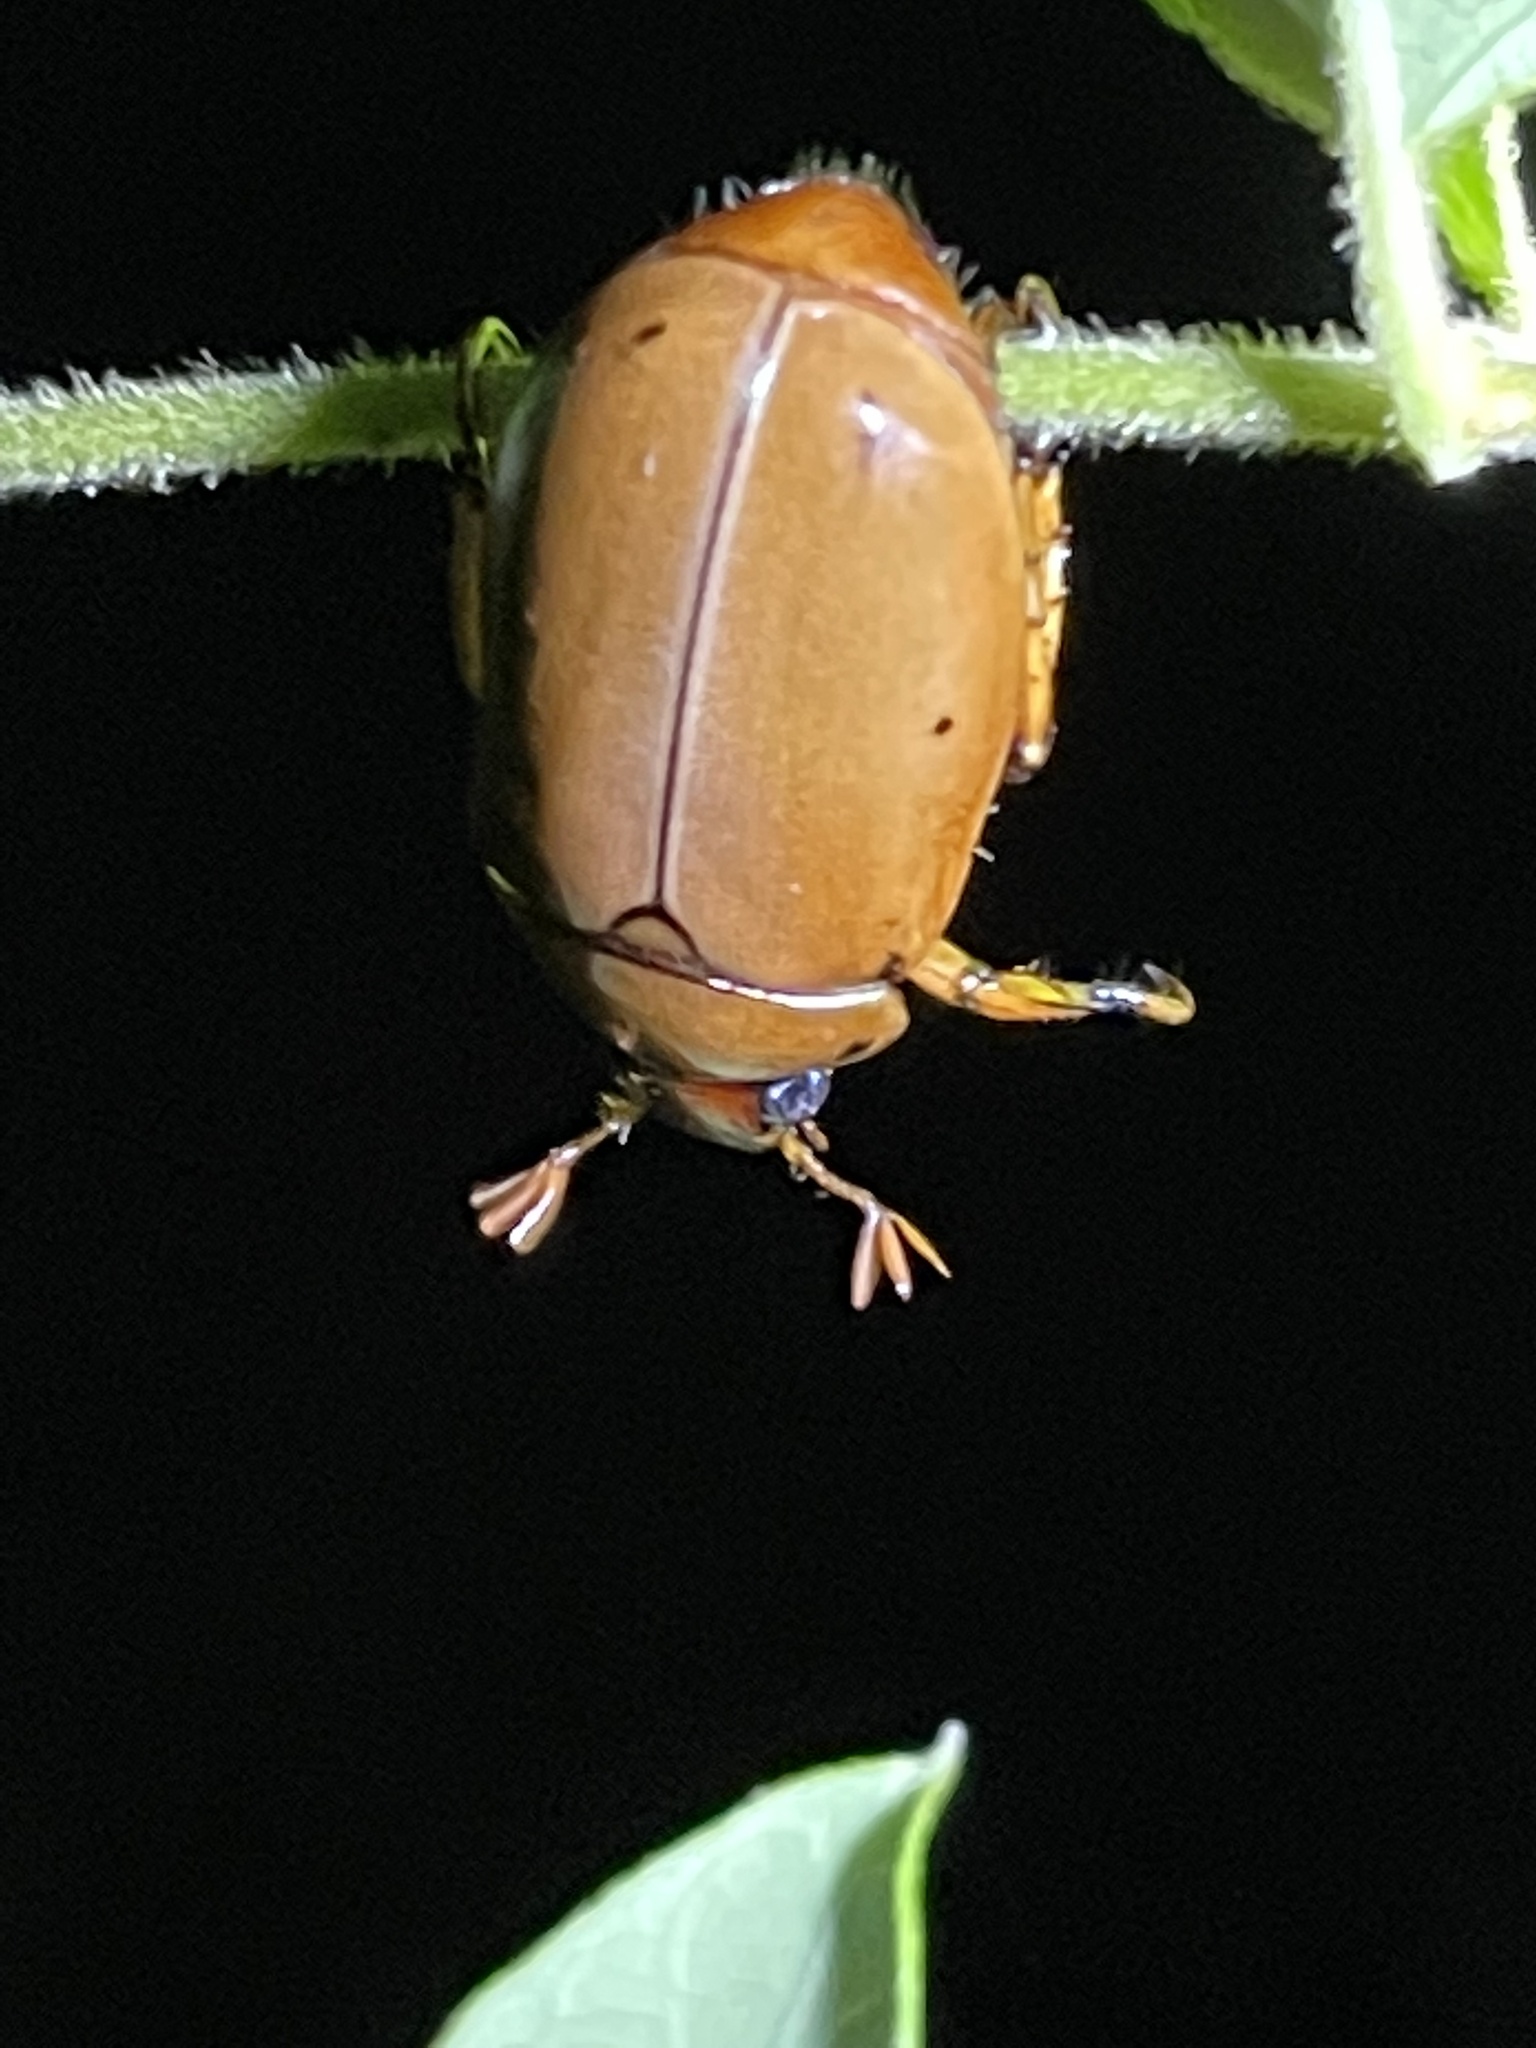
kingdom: Animalia
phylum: Arthropoda
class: Insecta
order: Coleoptera
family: Scarabaeidae
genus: Pelidnota
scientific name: Pelidnota punctata
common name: Grapevine beetle
